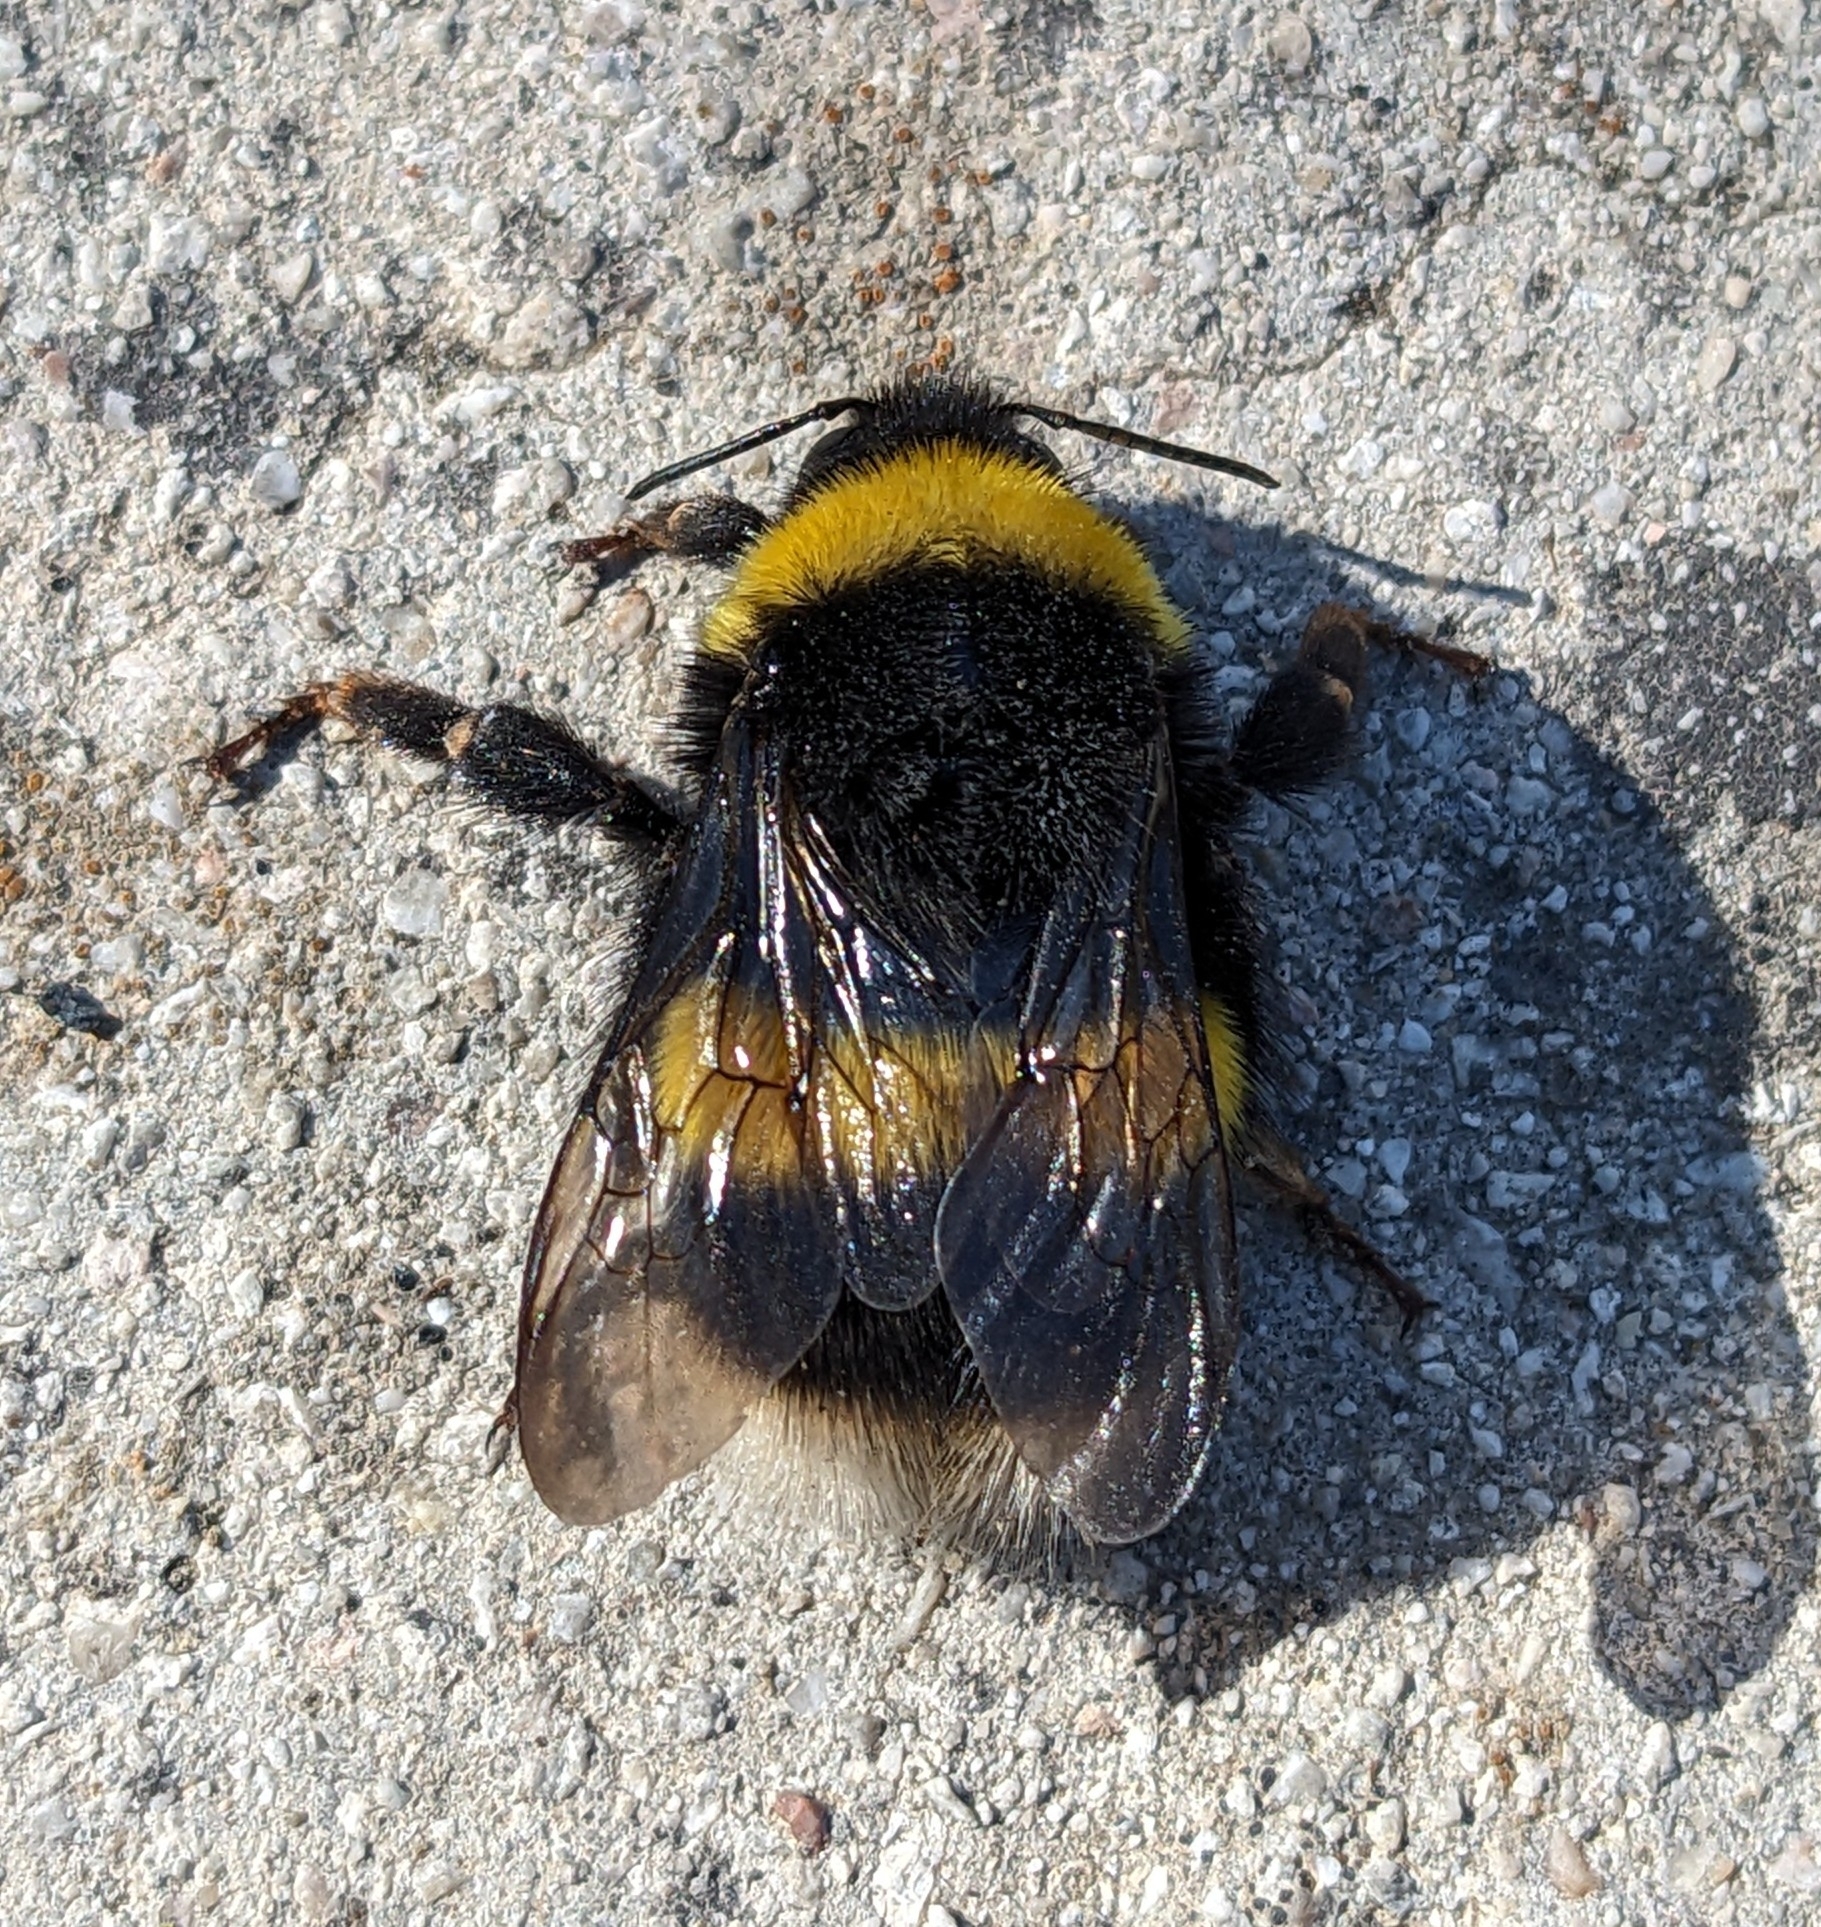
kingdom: Animalia
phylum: Arthropoda
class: Insecta
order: Hymenoptera
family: Apidae
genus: Bombus
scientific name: Bombus terrestris
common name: Buff-tailed bumblebee
